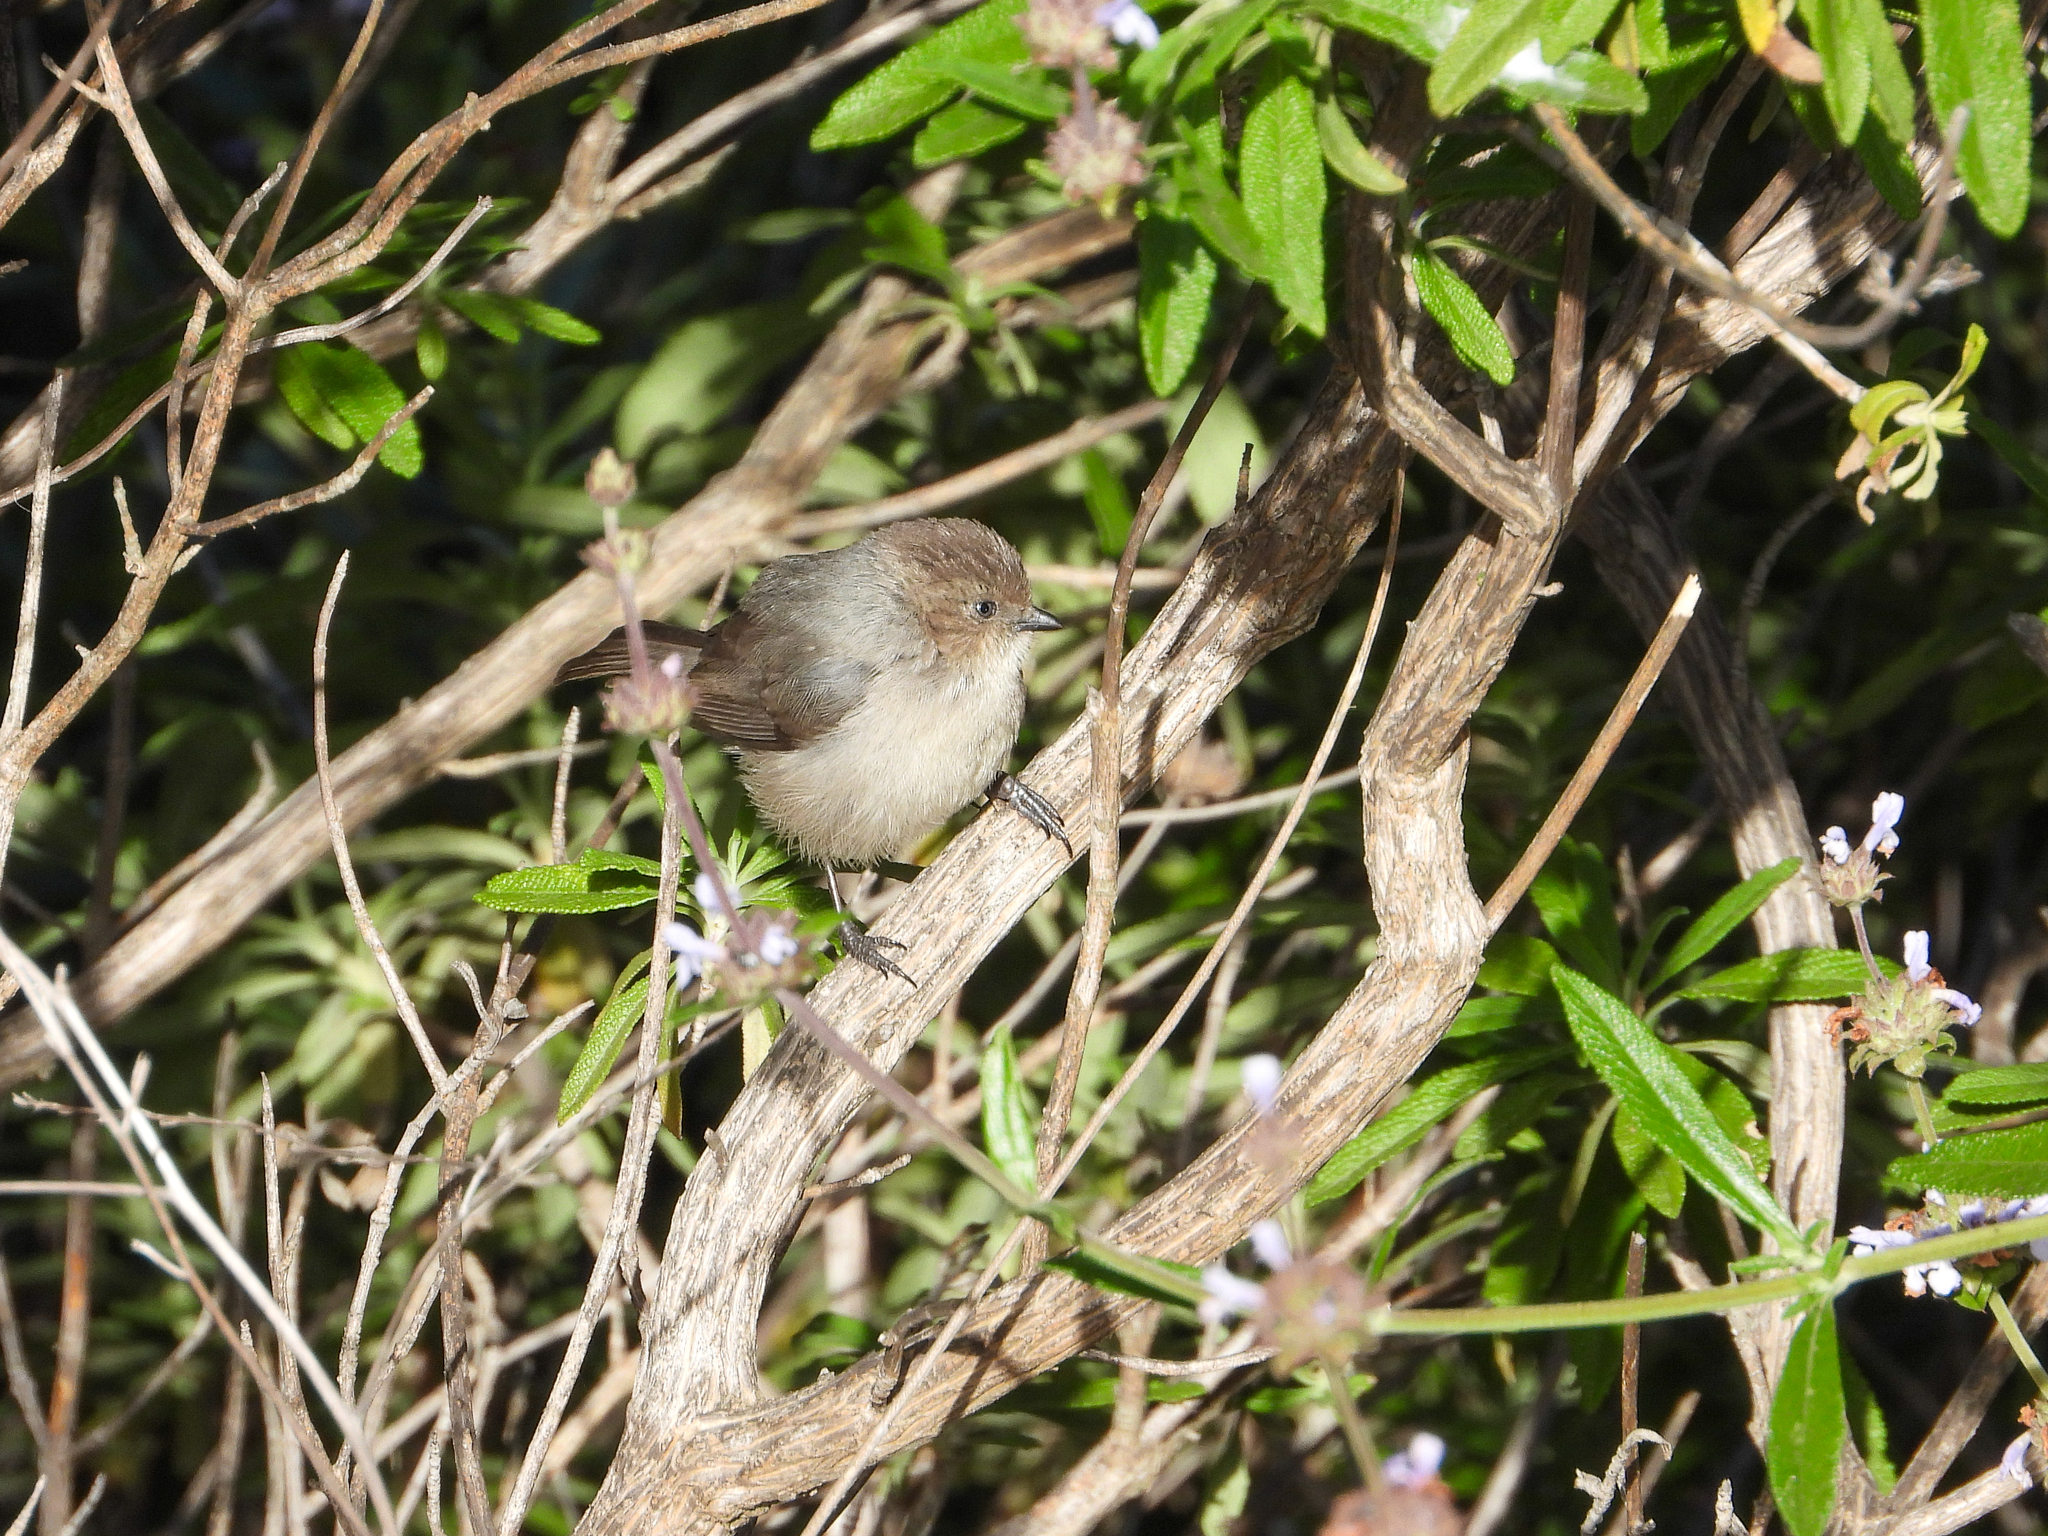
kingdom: Animalia
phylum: Chordata
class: Aves
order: Passeriformes
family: Aegithalidae
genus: Psaltriparus
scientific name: Psaltriparus minimus
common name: American bushtit
